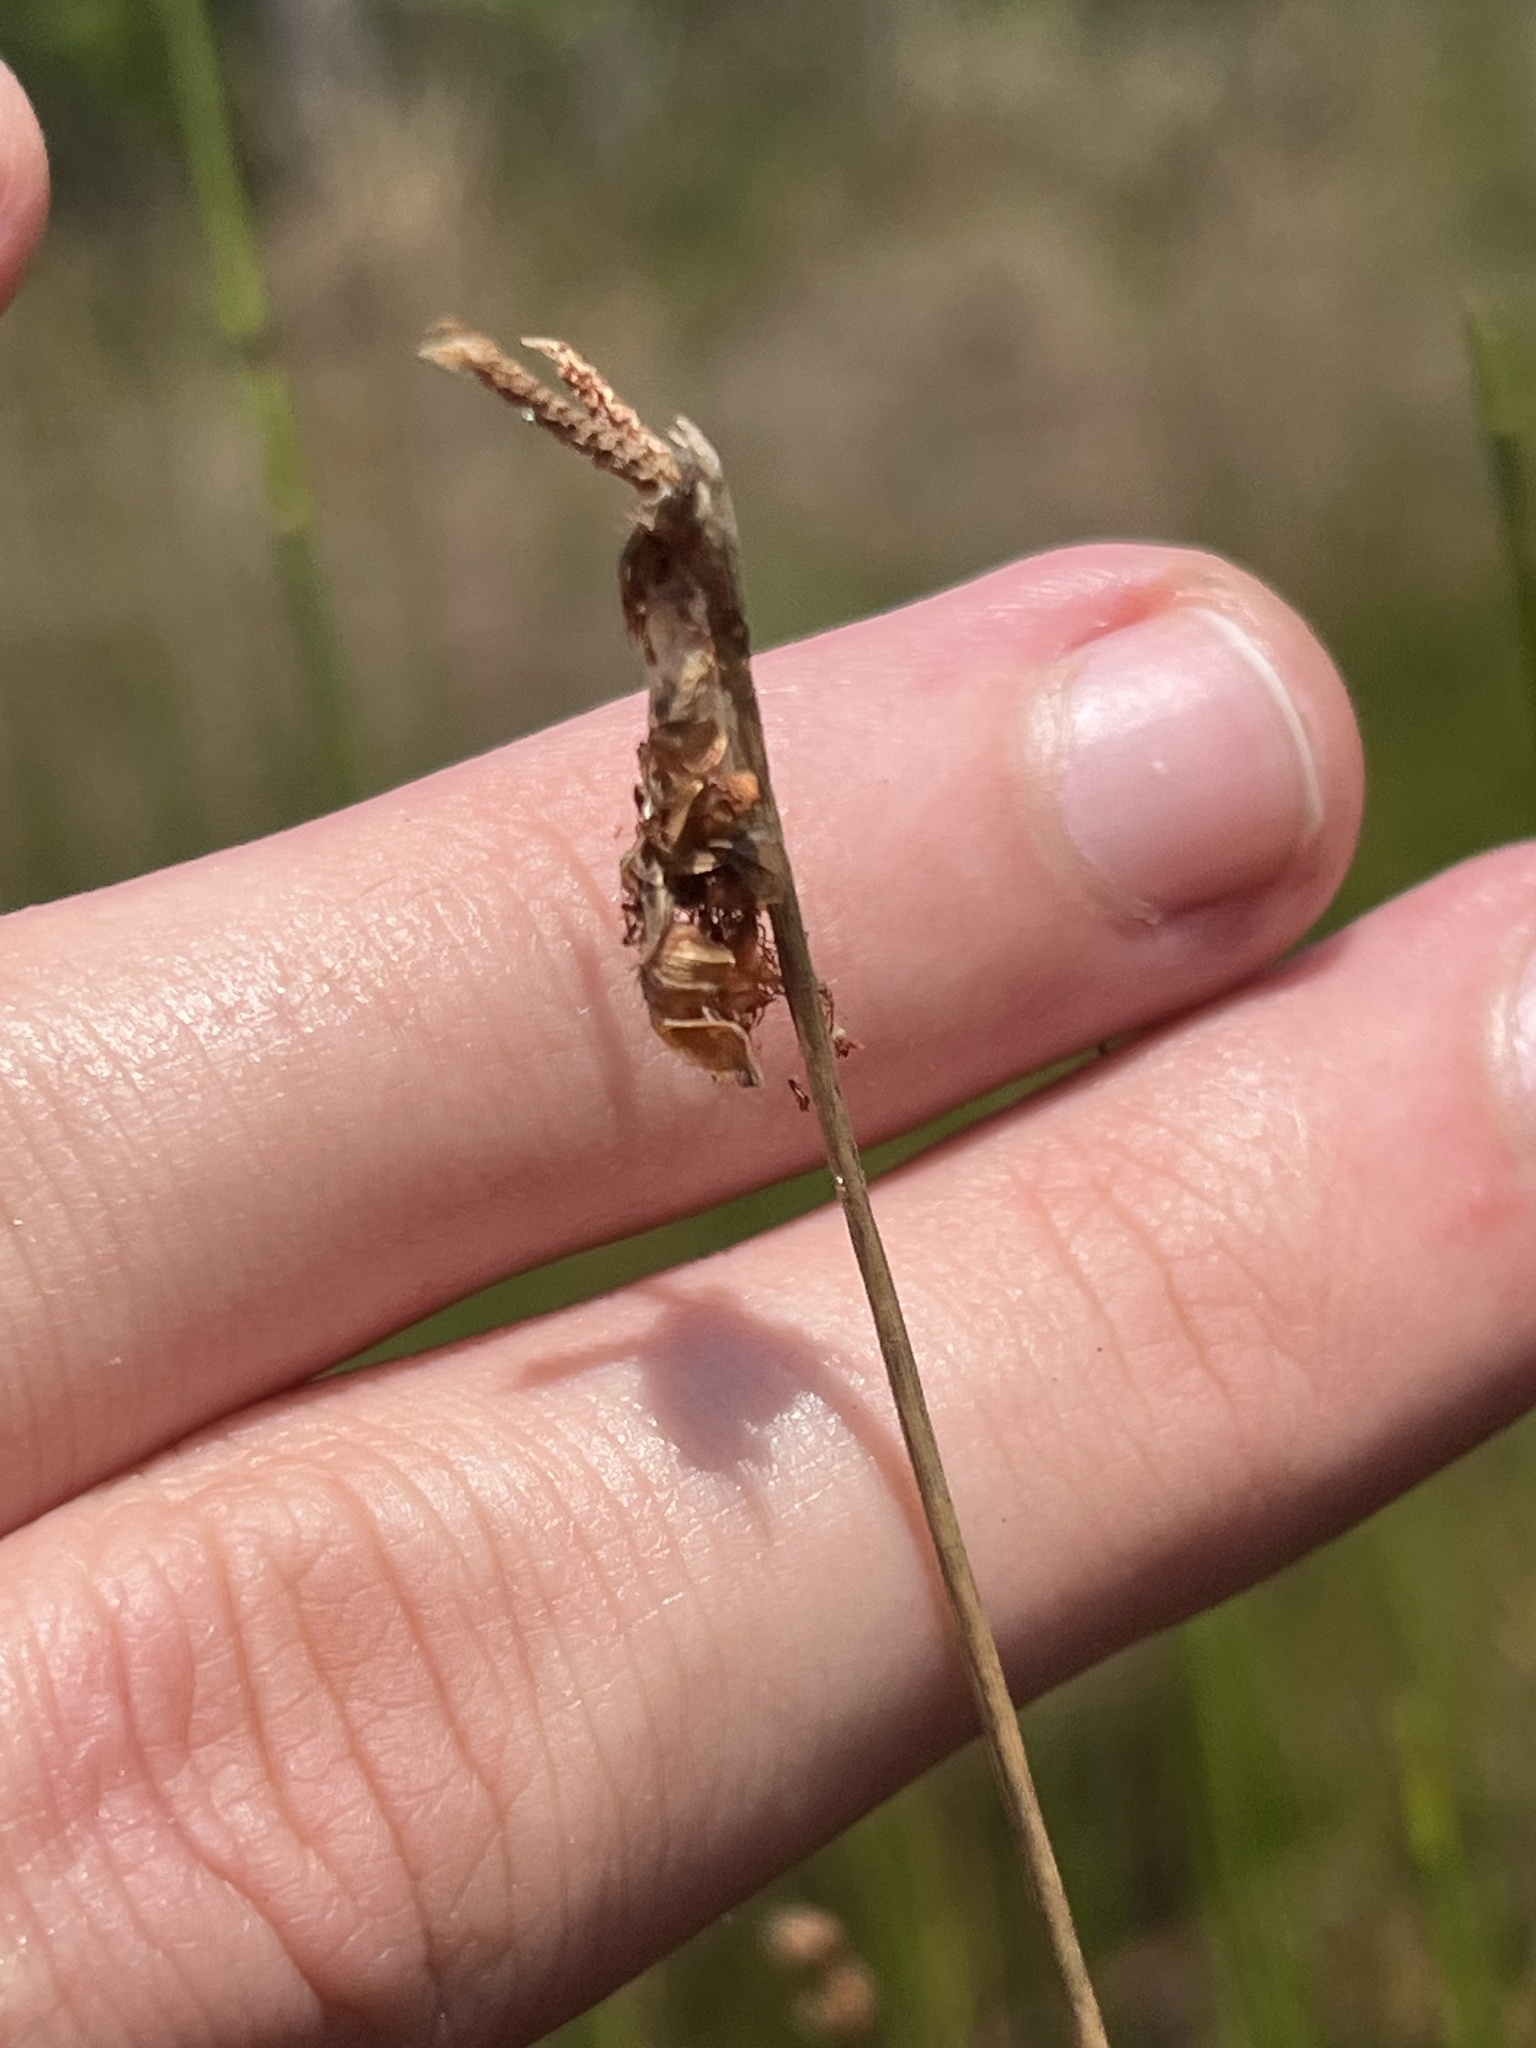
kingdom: Plantae
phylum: Tracheophyta
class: Liliopsida
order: Poales
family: Cyperaceae
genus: Fuirena
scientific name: Fuirena scirpoidea
